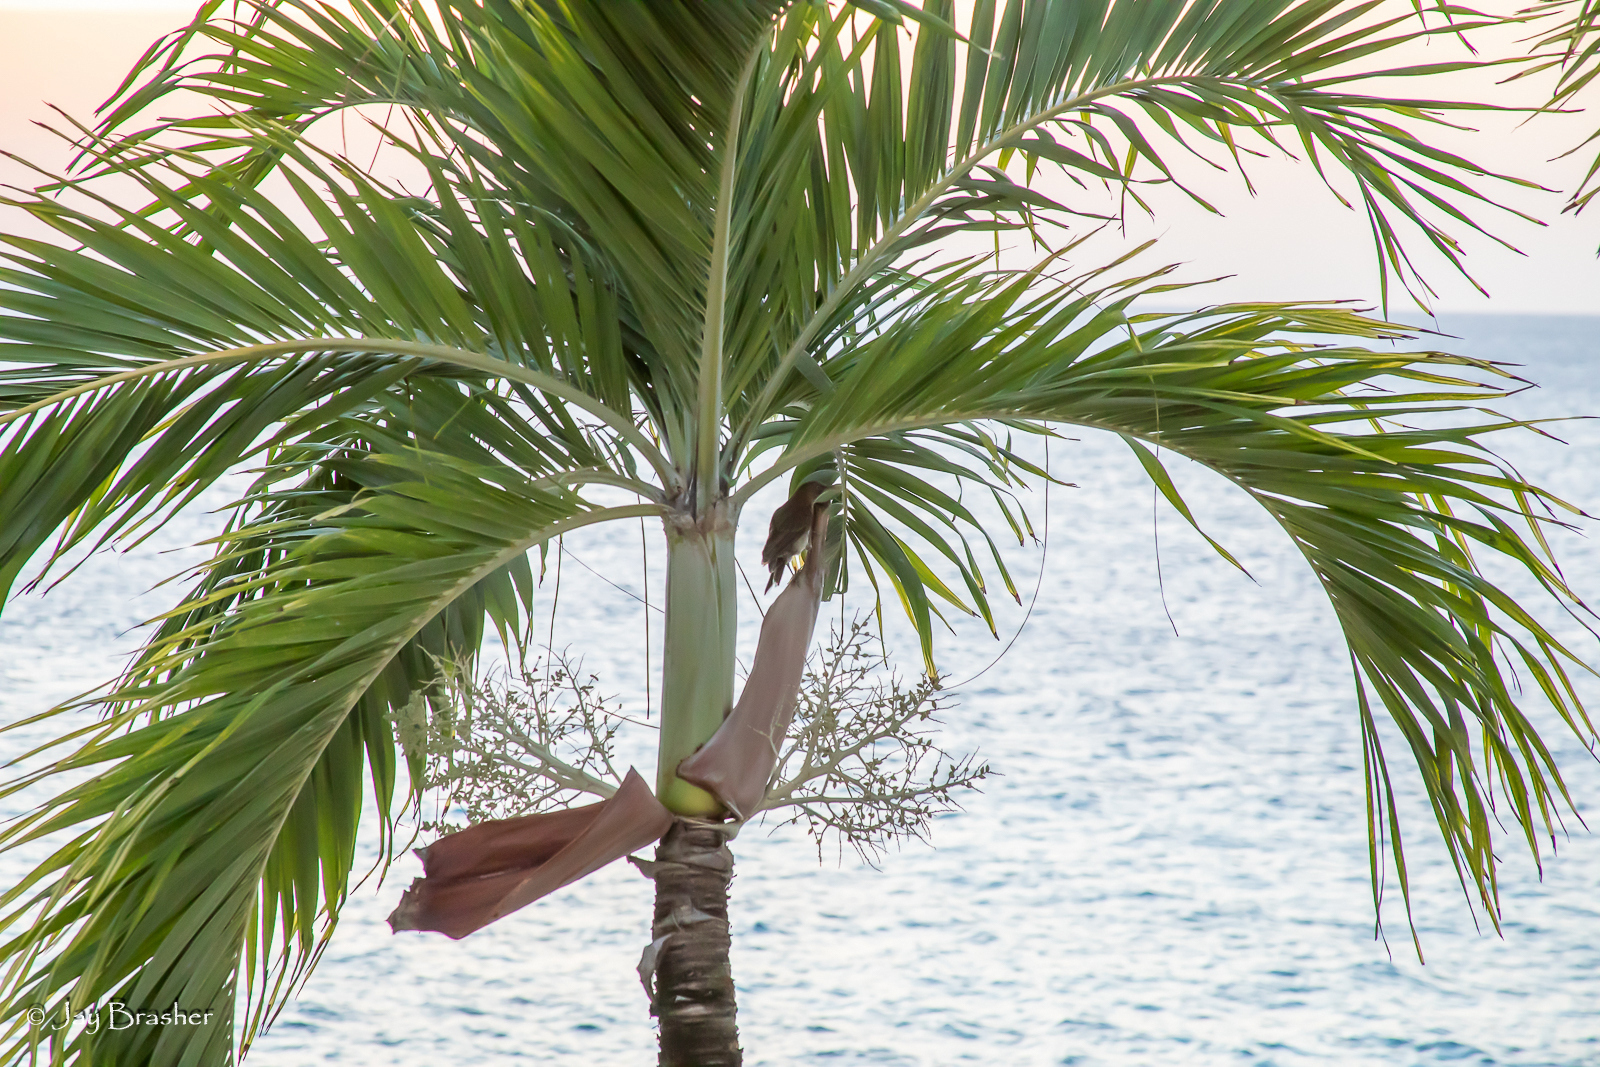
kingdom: Plantae
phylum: Tracheophyta
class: Liliopsida
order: Arecales
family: Arecaceae
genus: Adonidia
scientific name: Adonidia merrillii
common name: Manila palm
